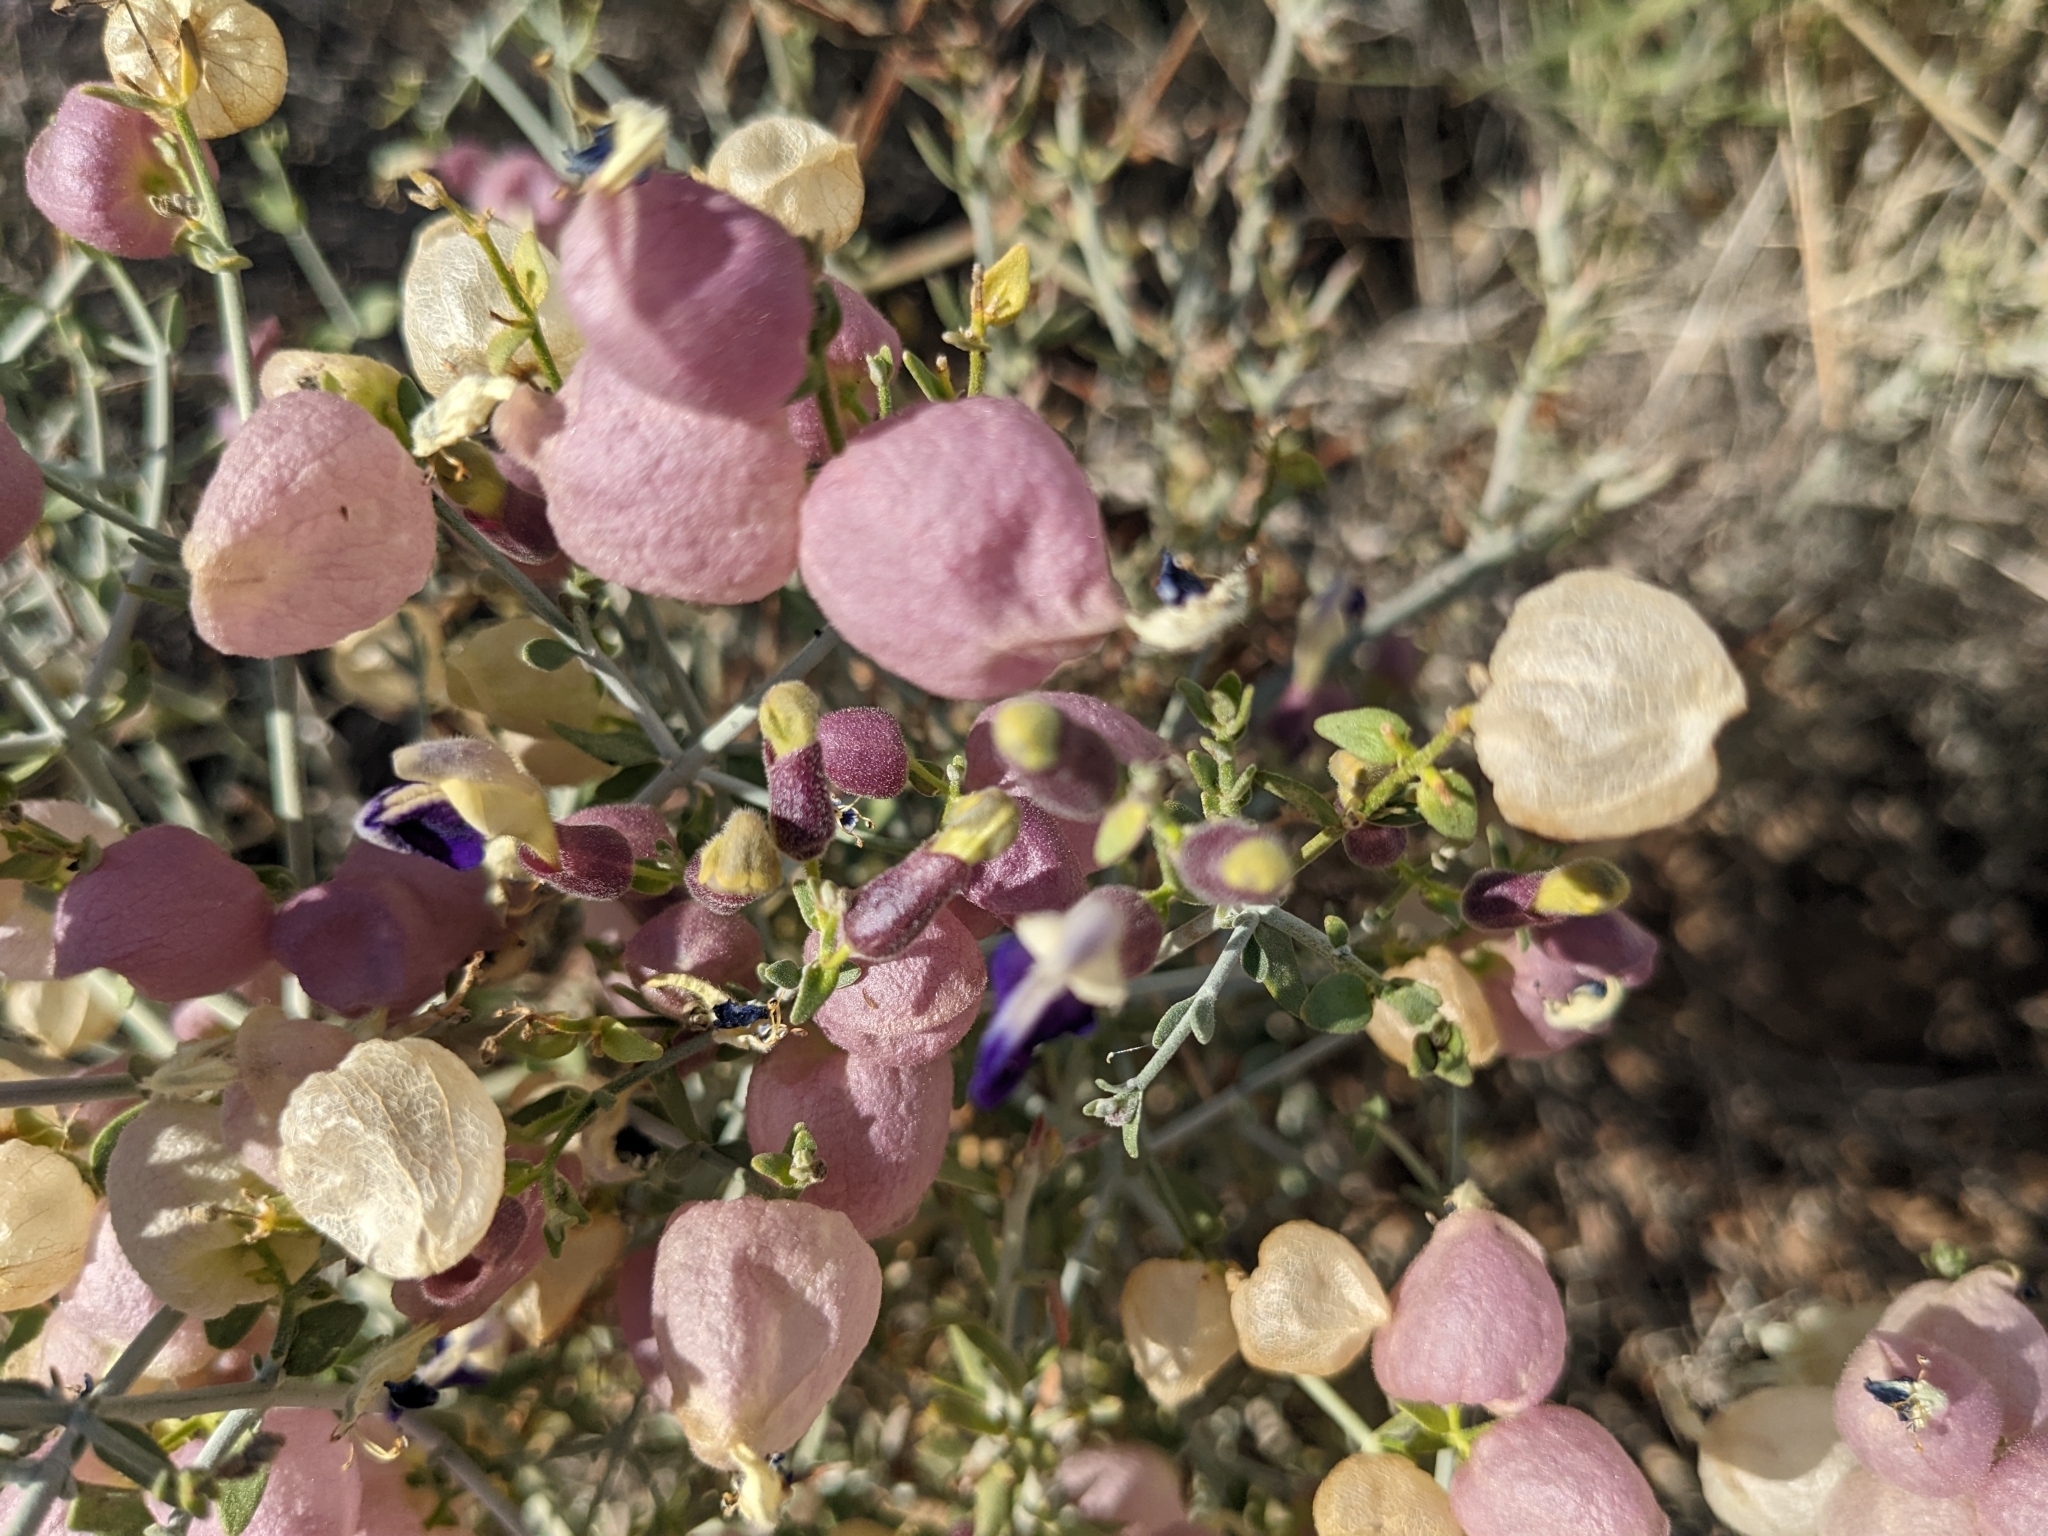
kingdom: Plantae
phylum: Tracheophyta
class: Magnoliopsida
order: Lamiales
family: Lamiaceae
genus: Scutellaria
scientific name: Scutellaria mexicana
